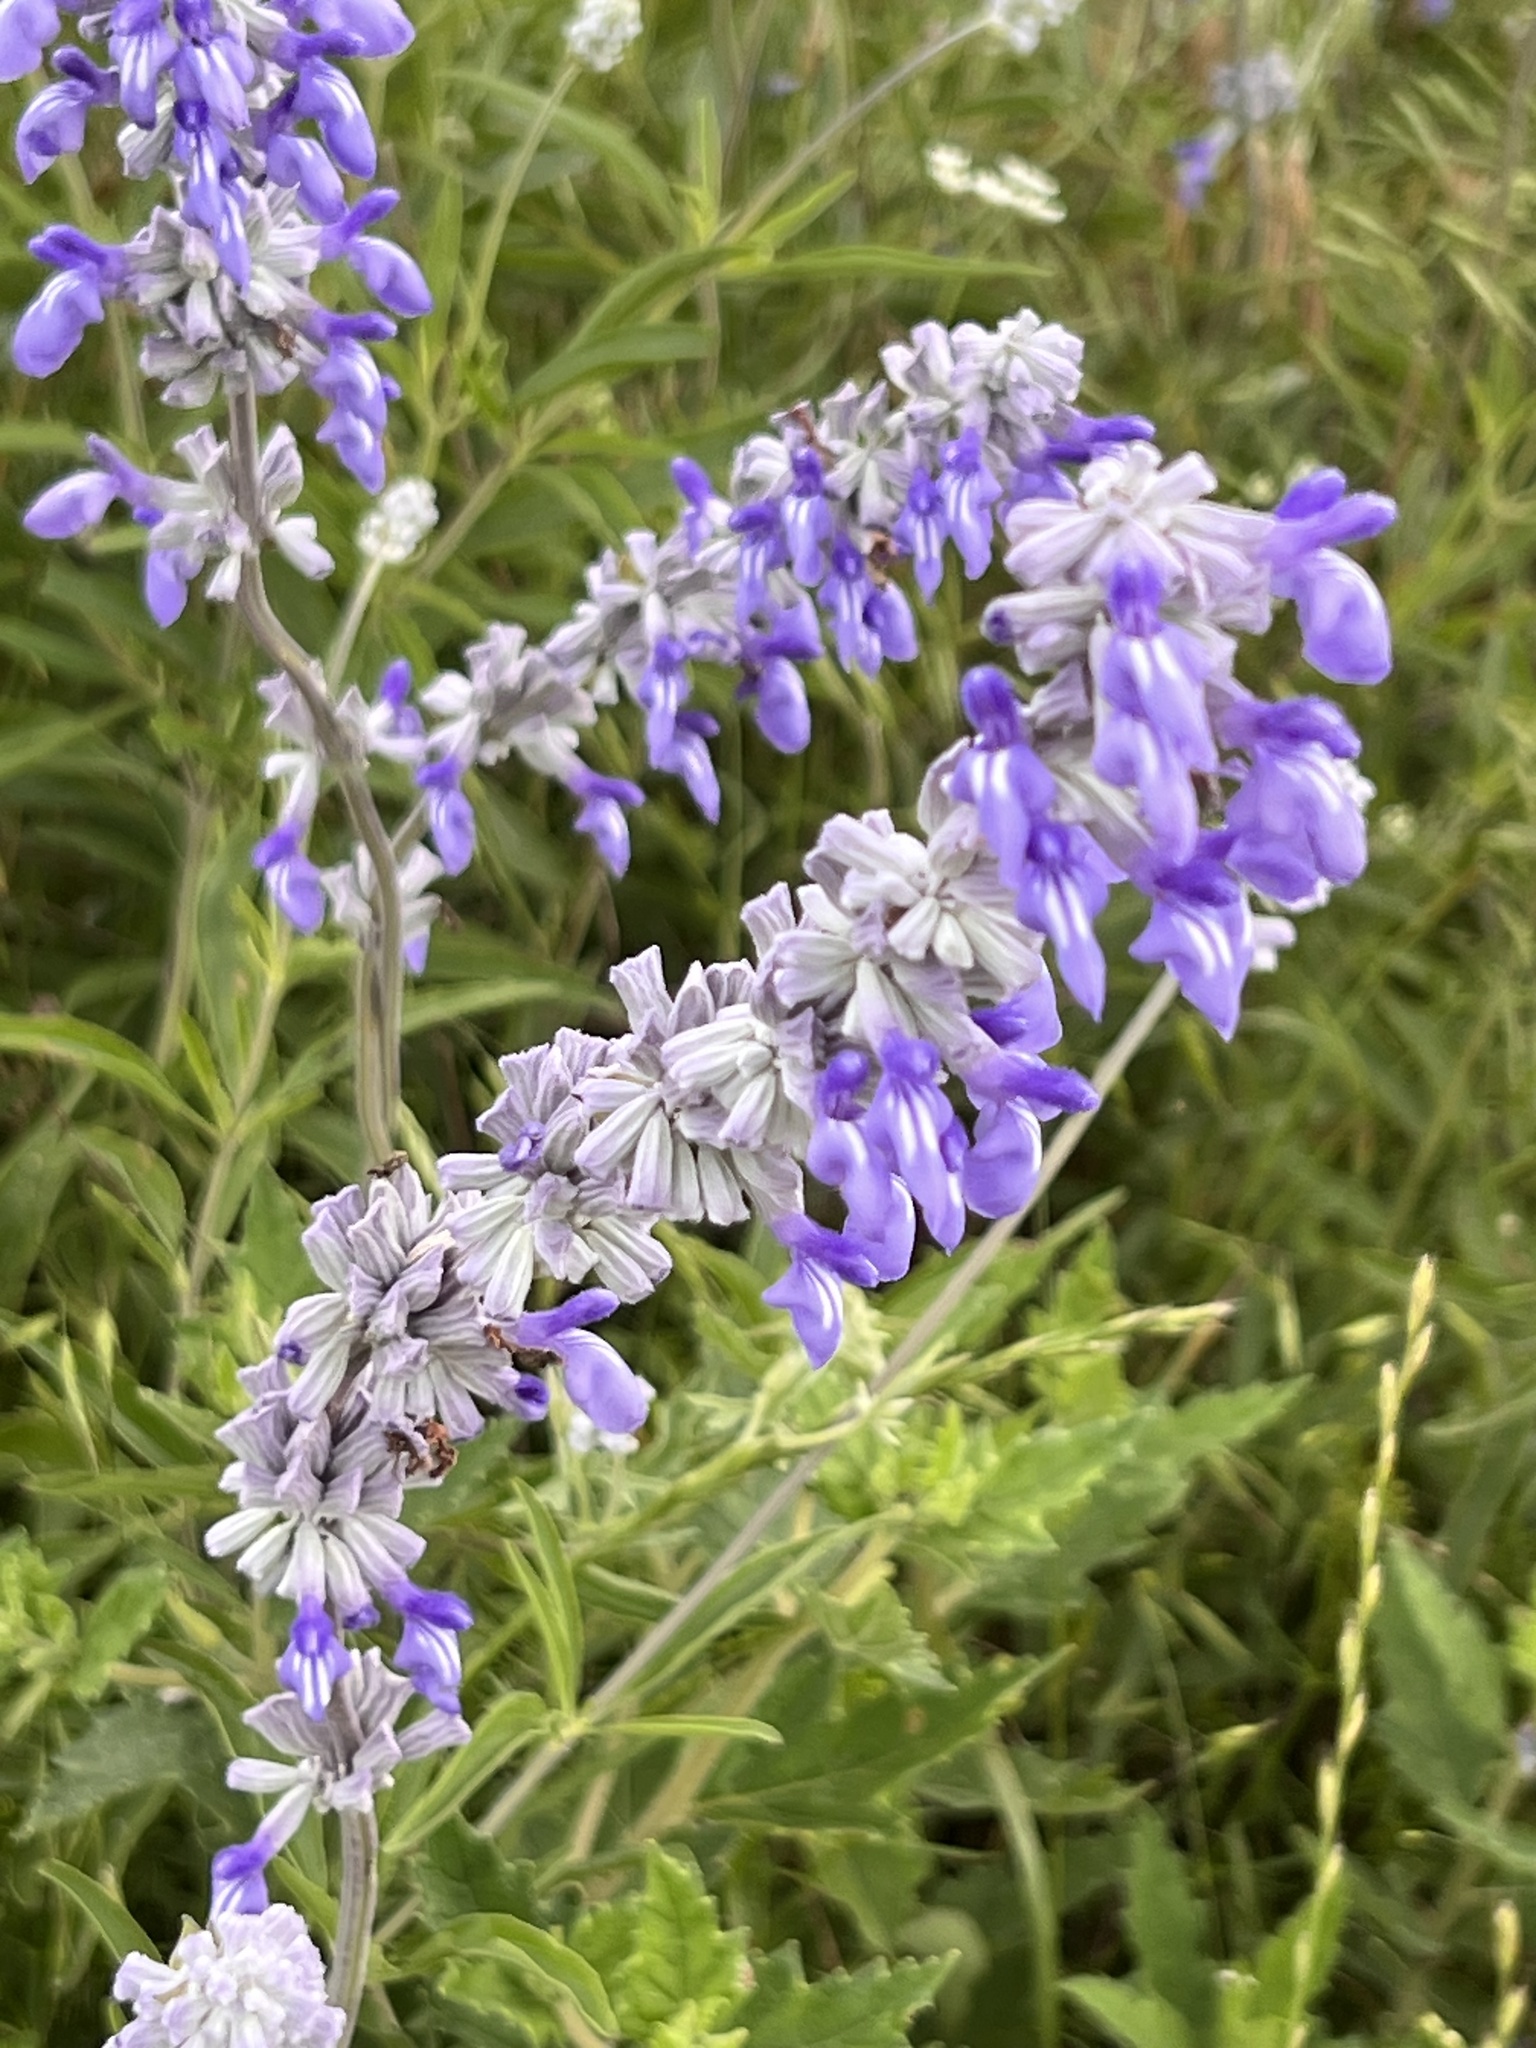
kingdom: Plantae
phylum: Tracheophyta
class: Magnoliopsida
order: Lamiales
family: Lamiaceae
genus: Salvia
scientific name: Salvia farinacea
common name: Mealy sage
